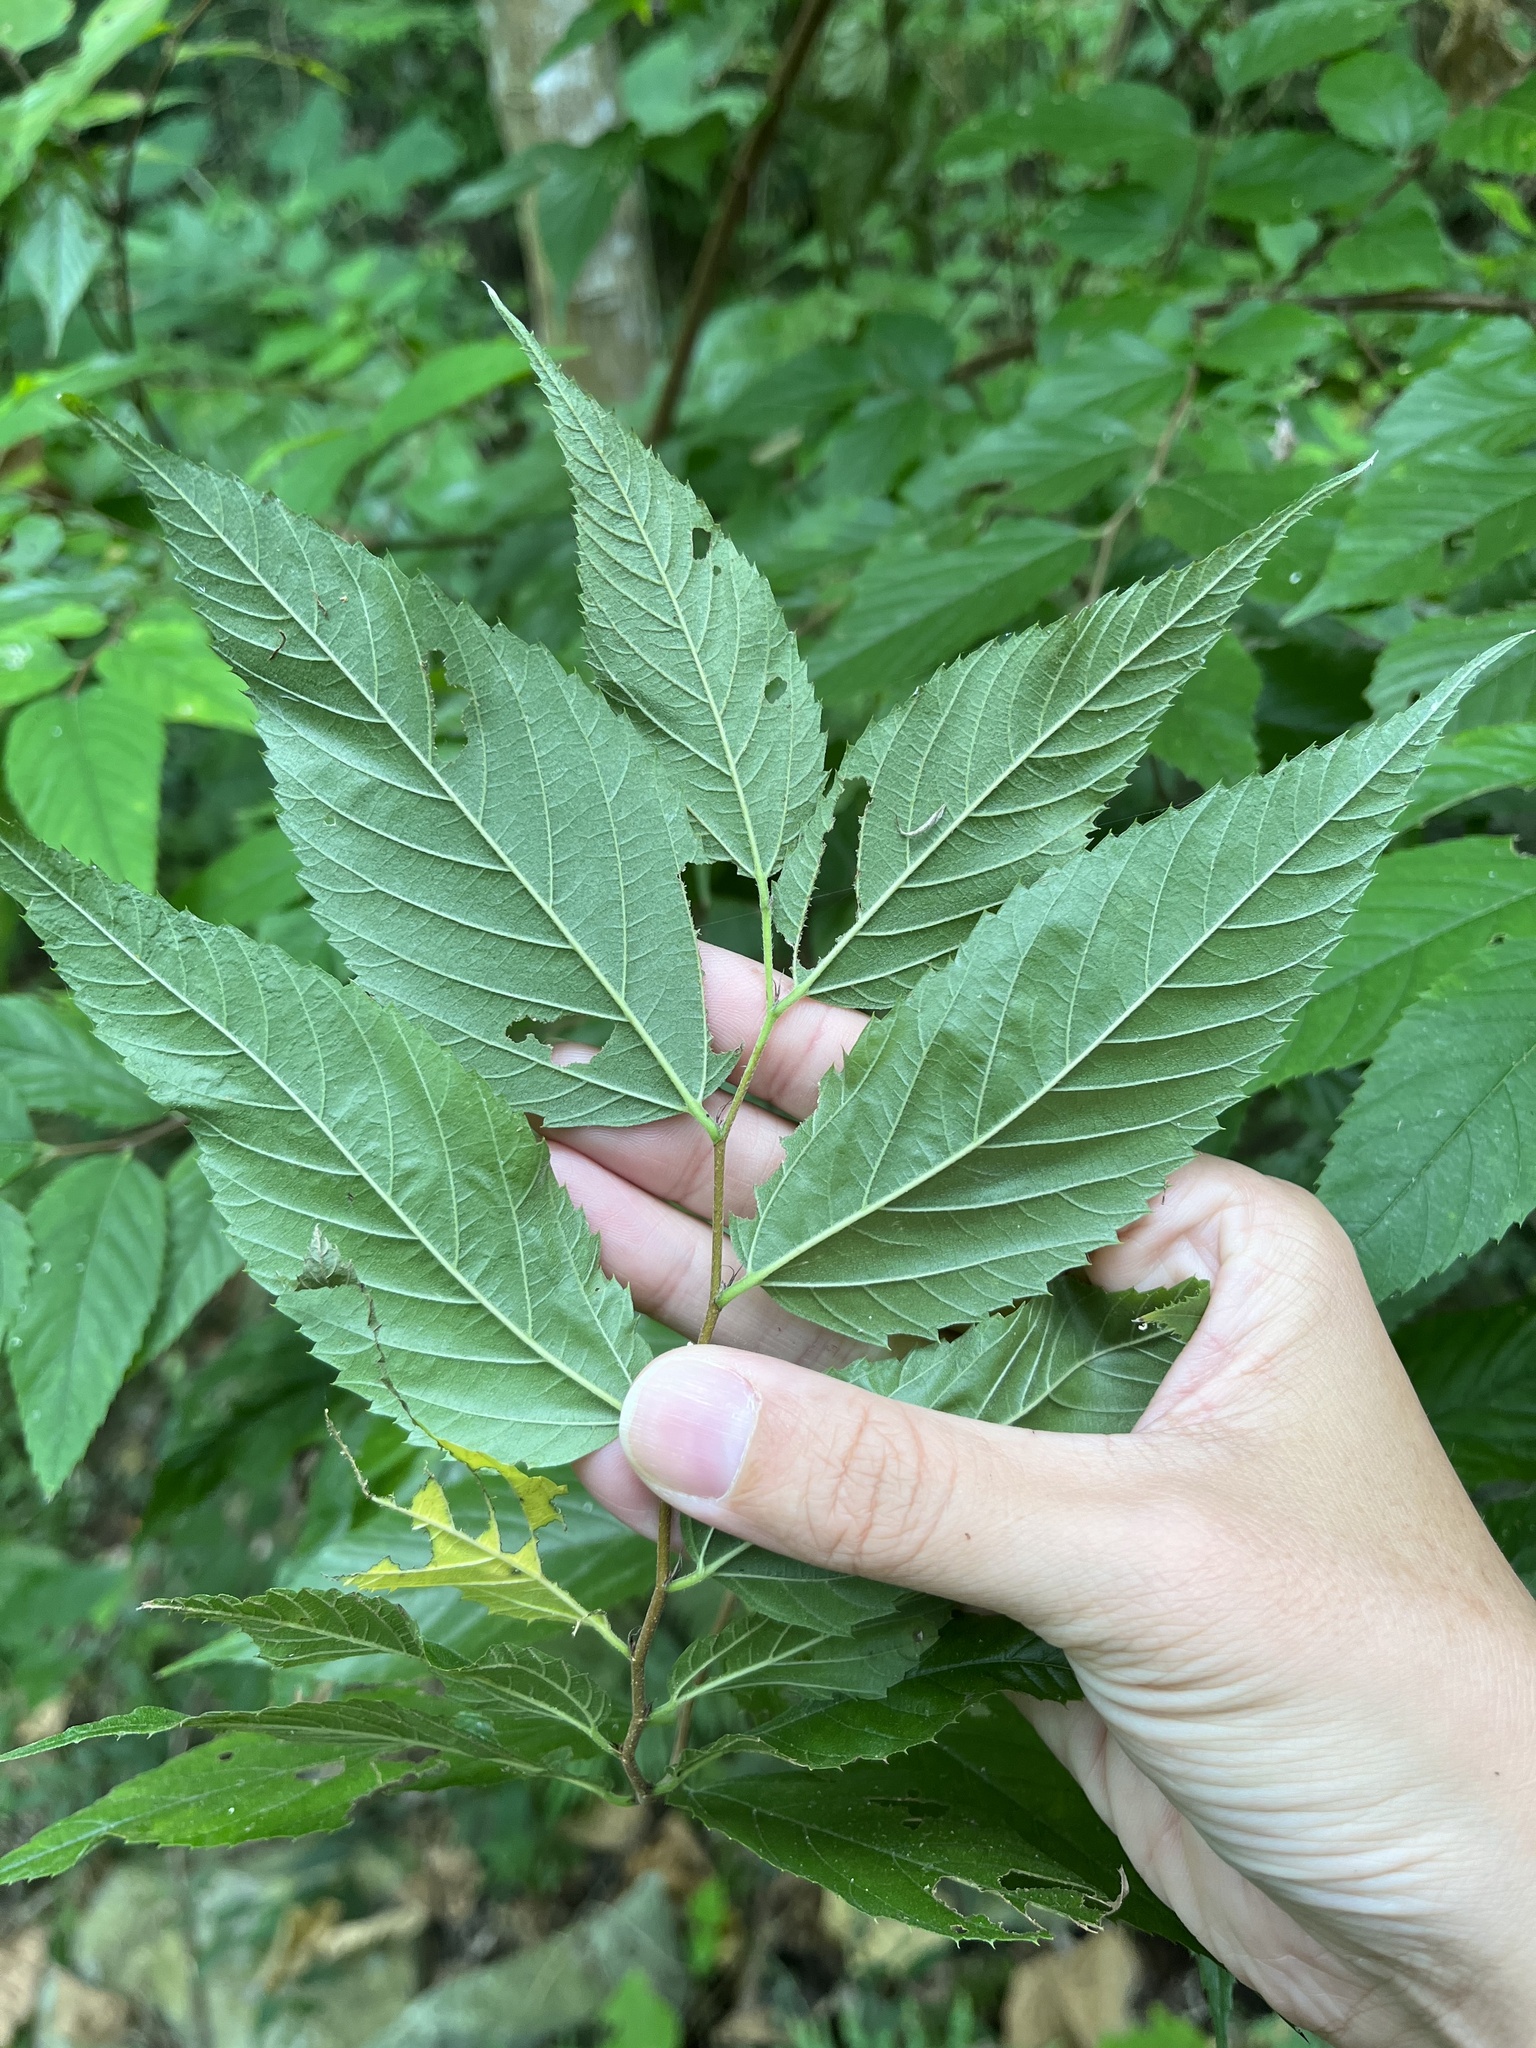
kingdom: Plantae
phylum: Tracheophyta
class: Magnoliopsida
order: Rosales
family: Cannabaceae
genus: Aphananthe
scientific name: Aphananthe aspera
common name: Mukutree
